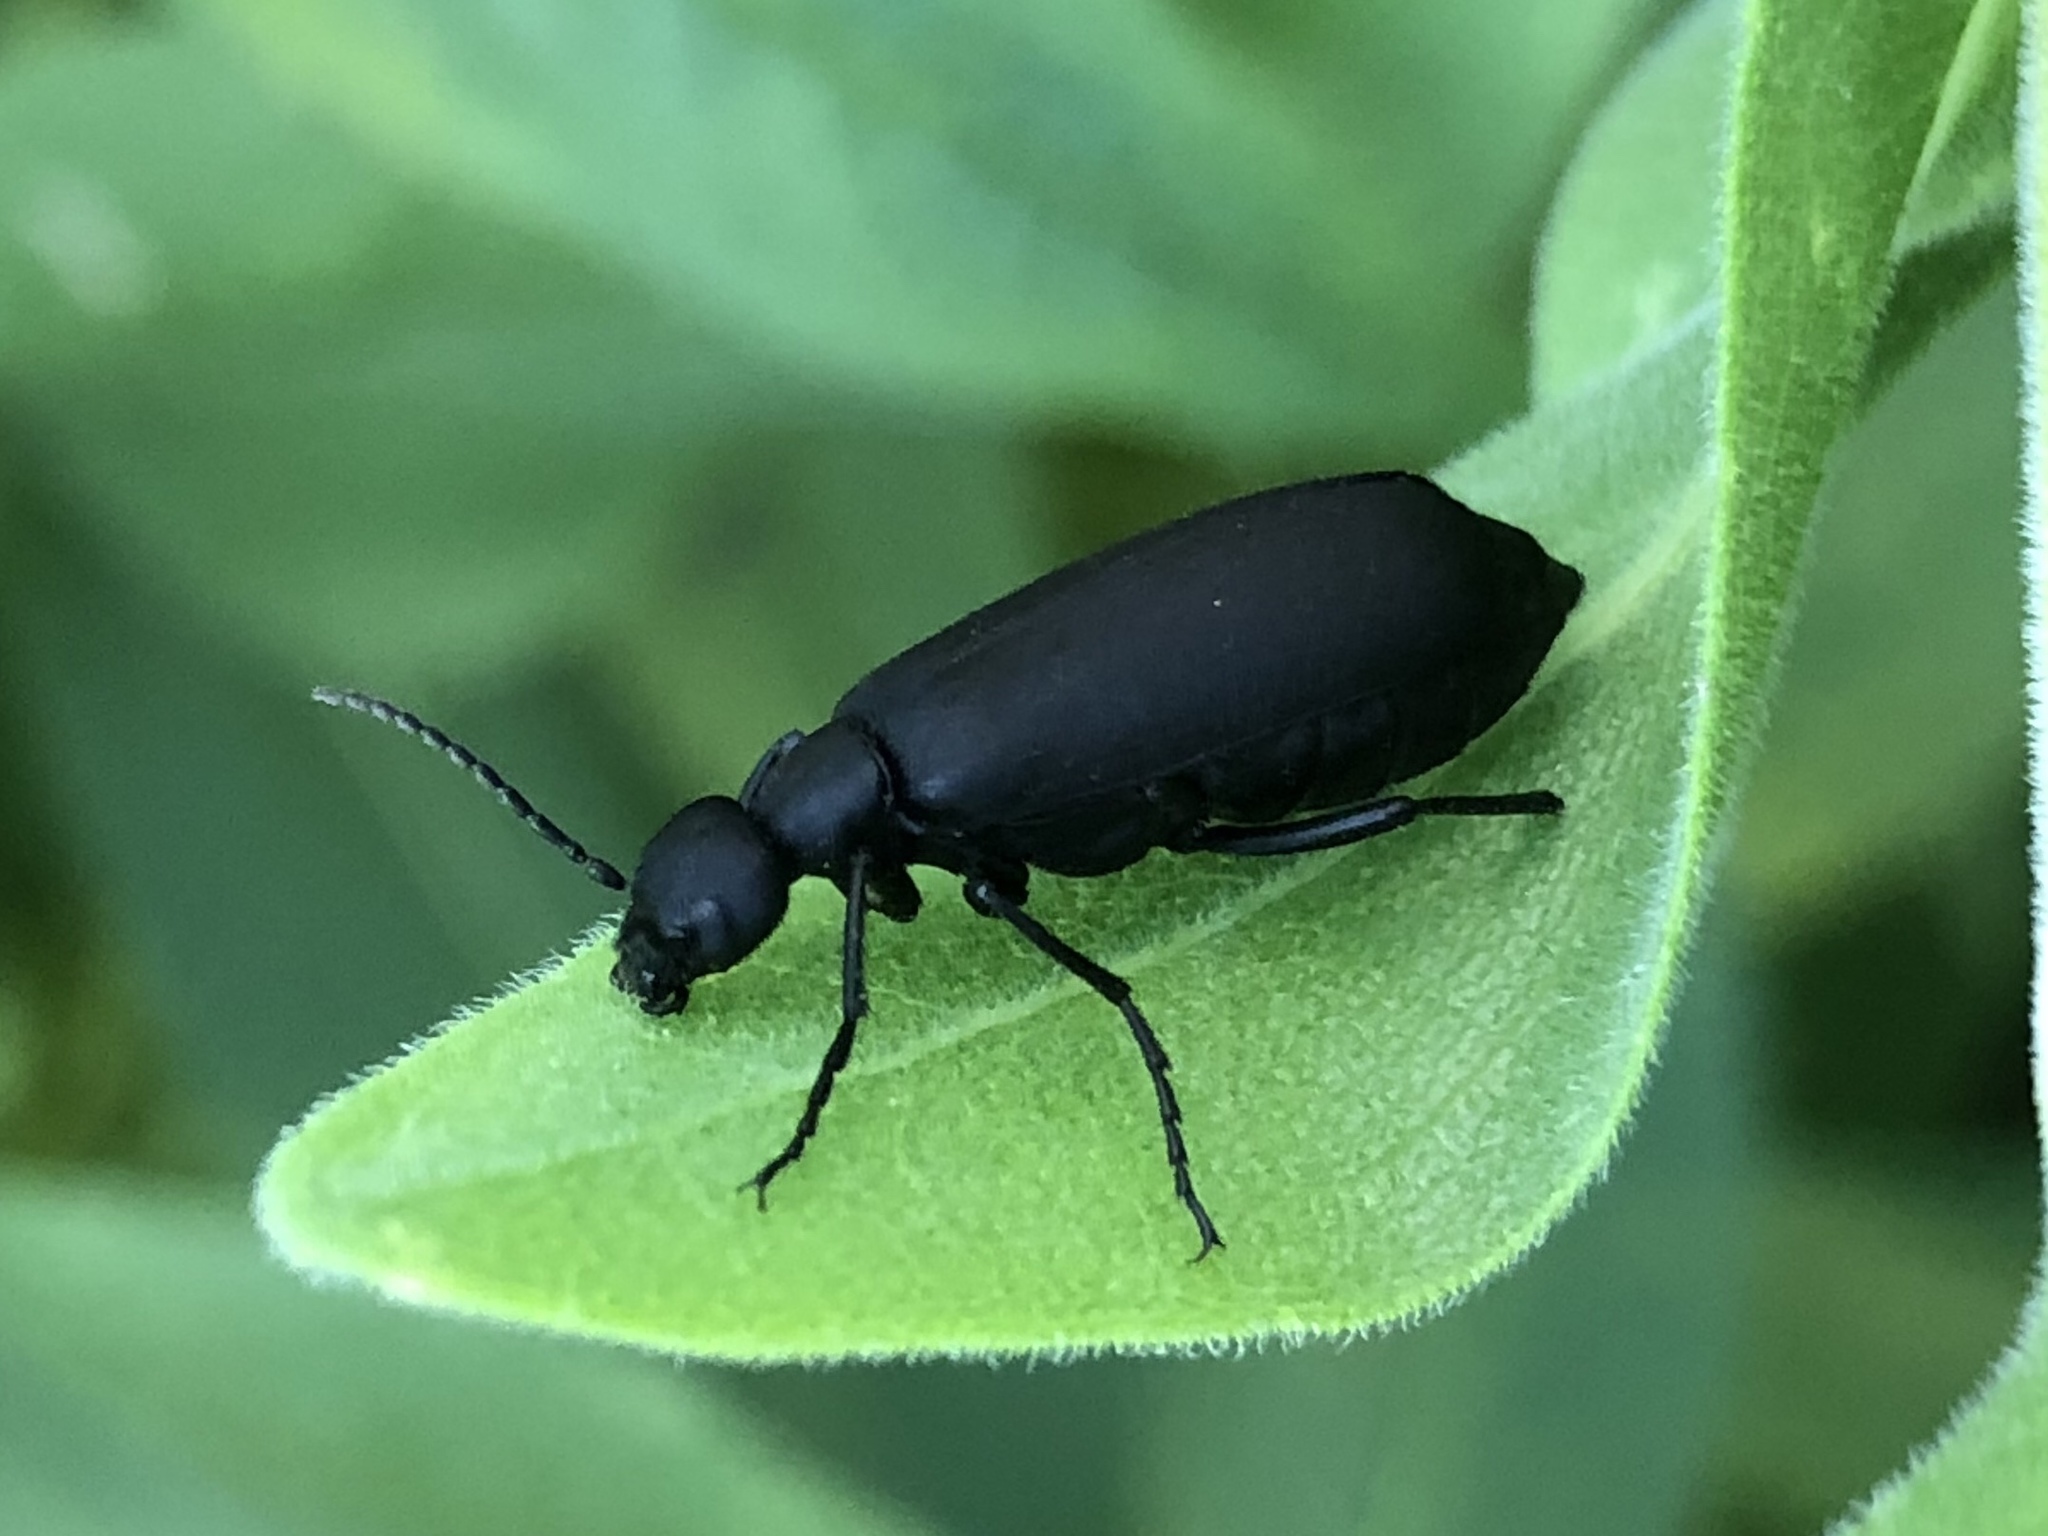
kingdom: Animalia
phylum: Arthropoda
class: Insecta
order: Coleoptera
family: Meloidae
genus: Epicauta
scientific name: Epicauta pensylvanica
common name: Black blister beetle
